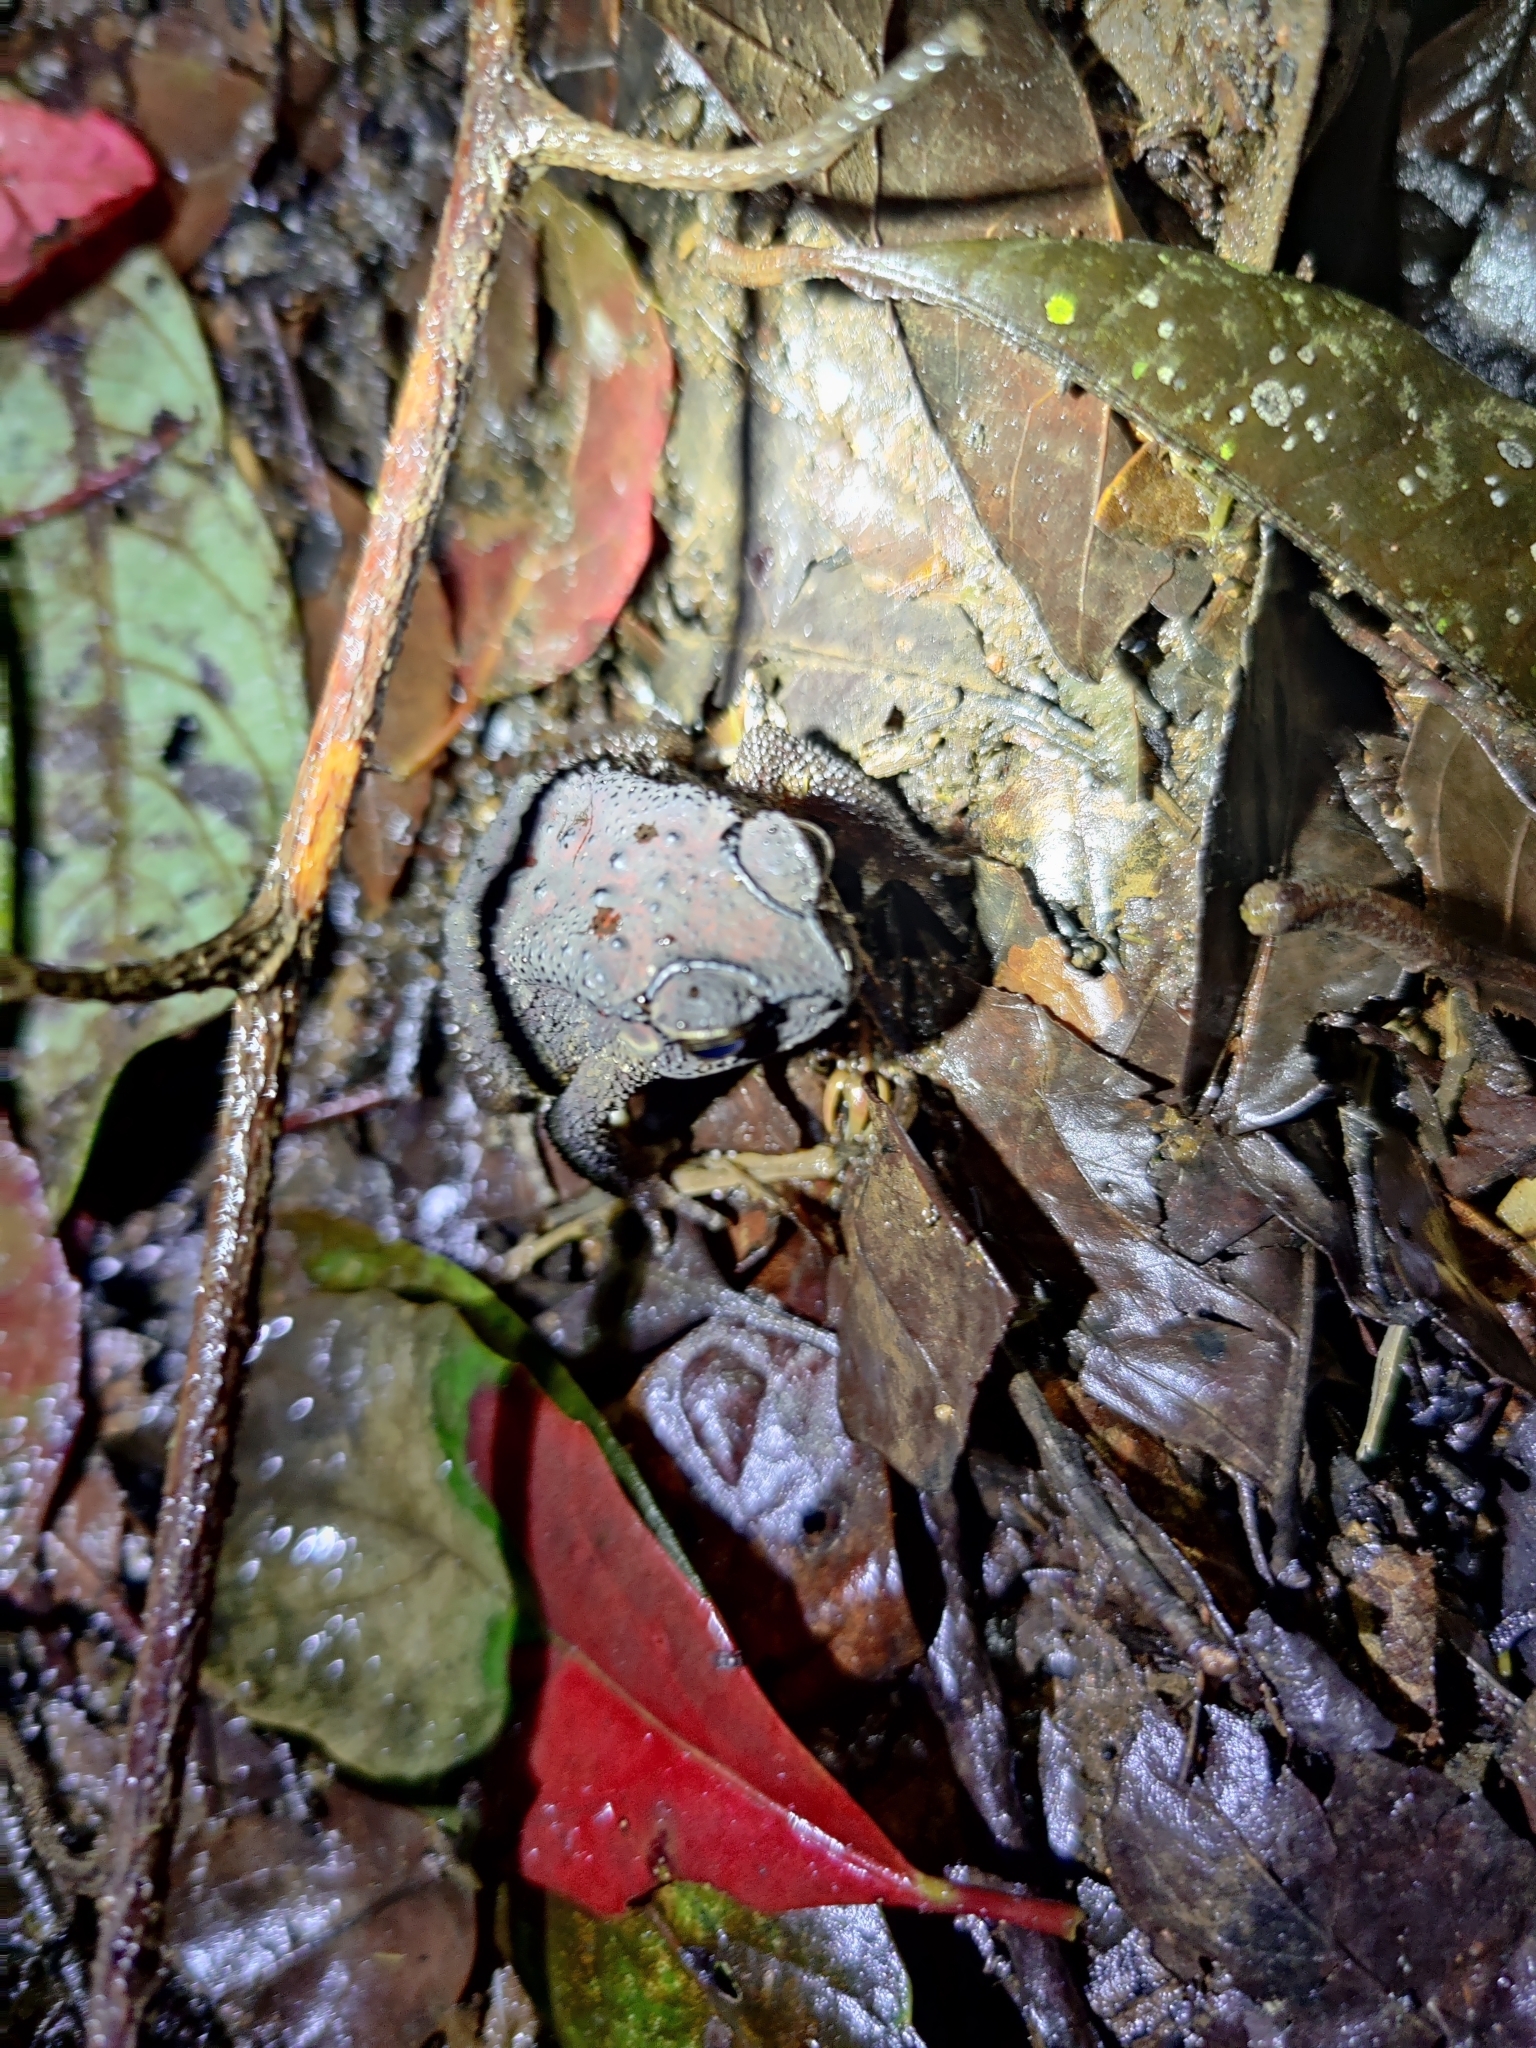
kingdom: Animalia
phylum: Chordata
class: Amphibia
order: Anura
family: Bufonidae
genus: Duttaphrynus
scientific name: Duttaphrynus melanostictus
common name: Common sunda toad
